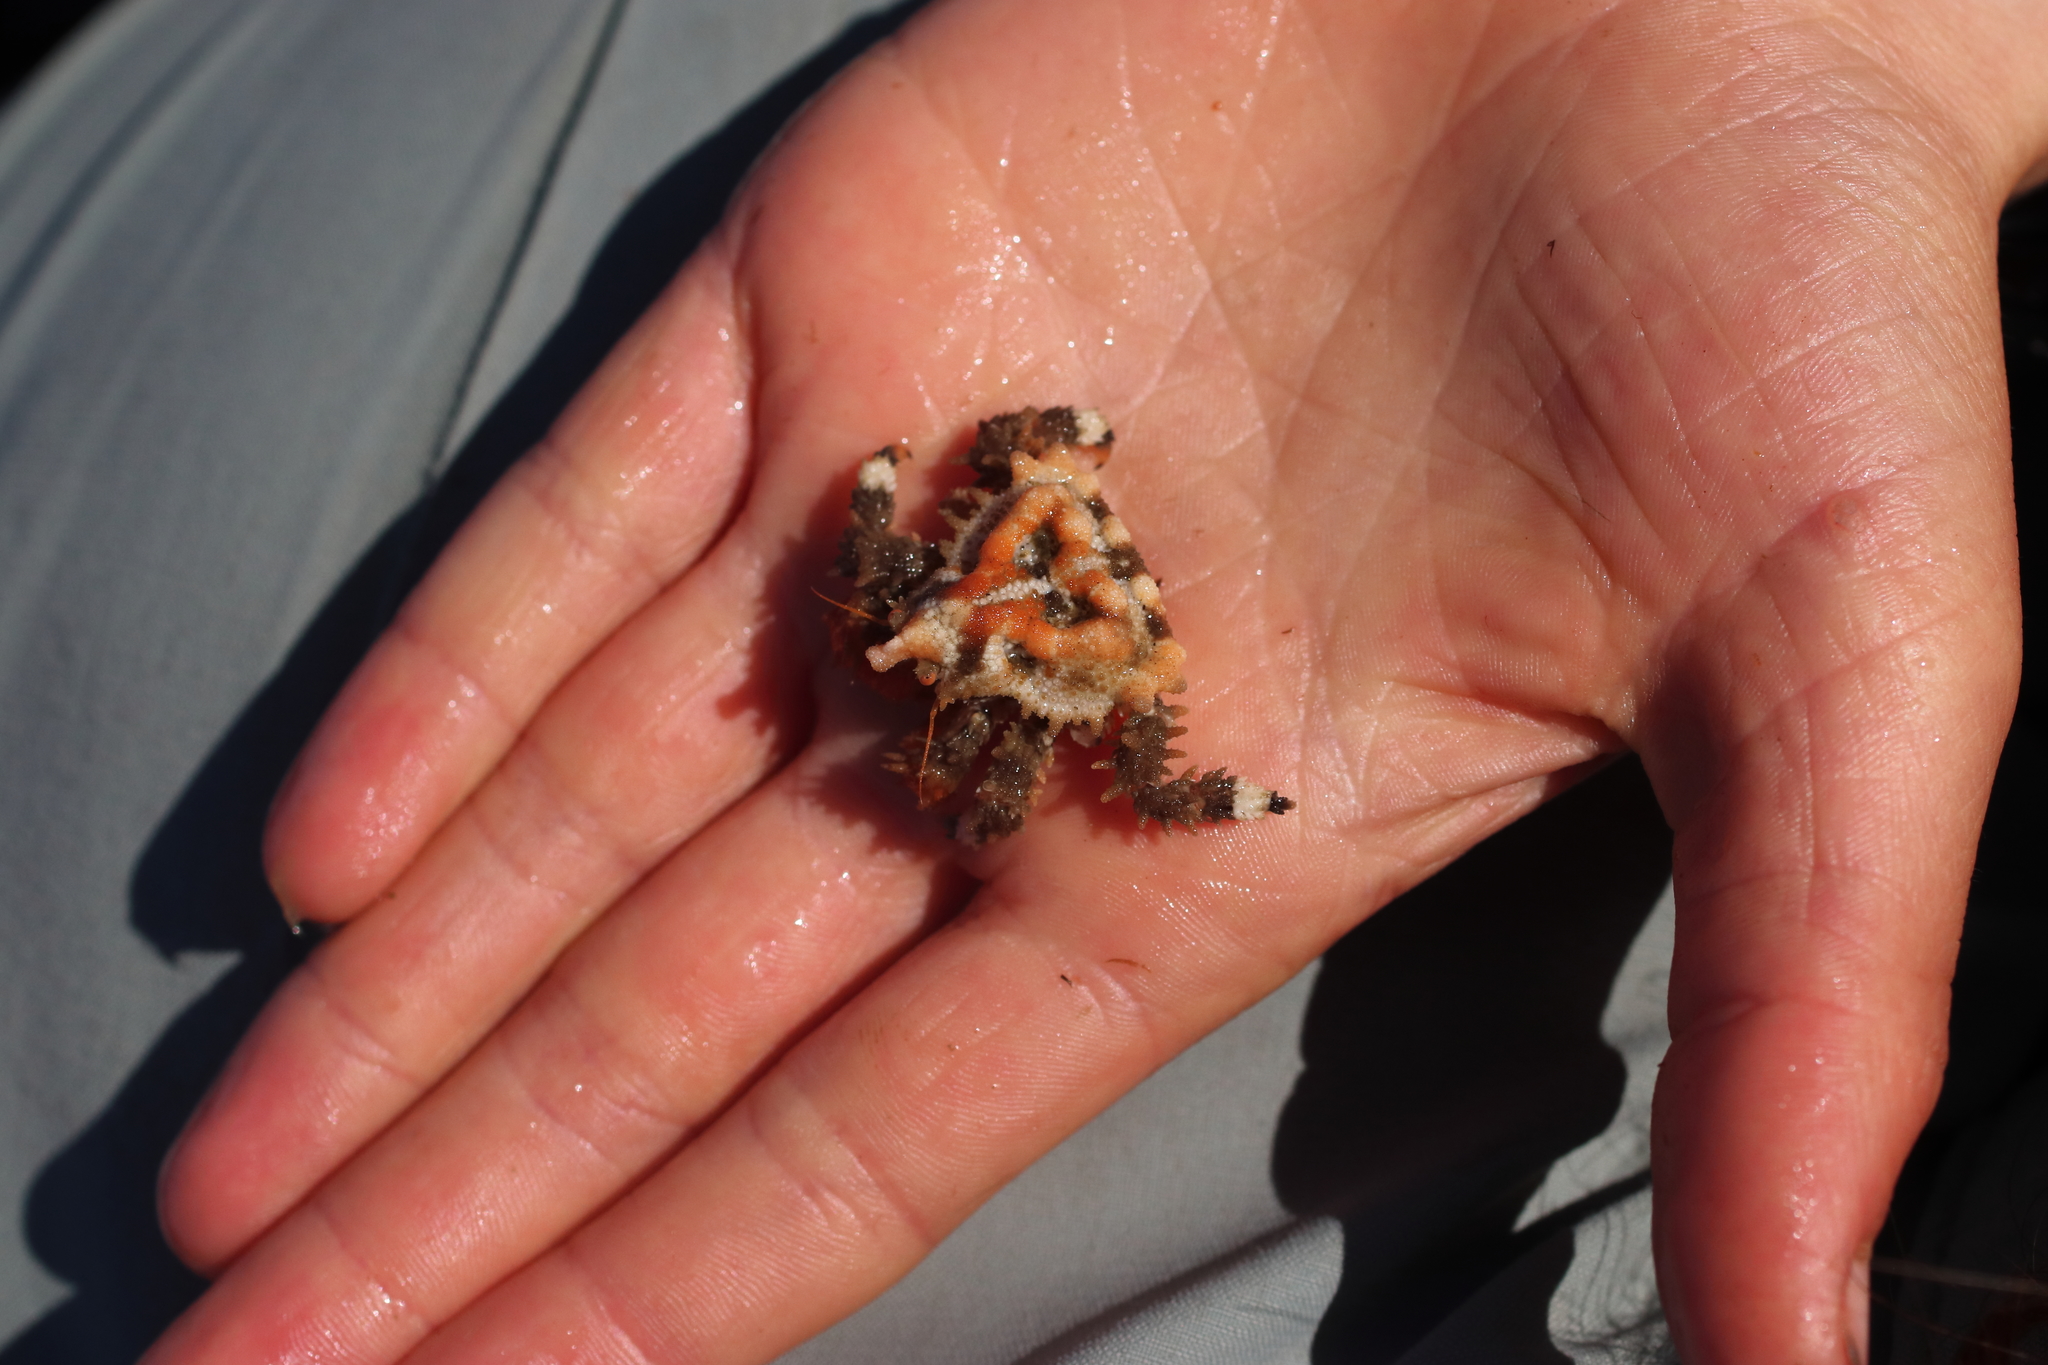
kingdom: Animalia
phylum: Arthropoda
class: Malacostraca
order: Decapoda
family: Lithodidae
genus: Phyllolithodes
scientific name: Phyllolithodes papillosus
